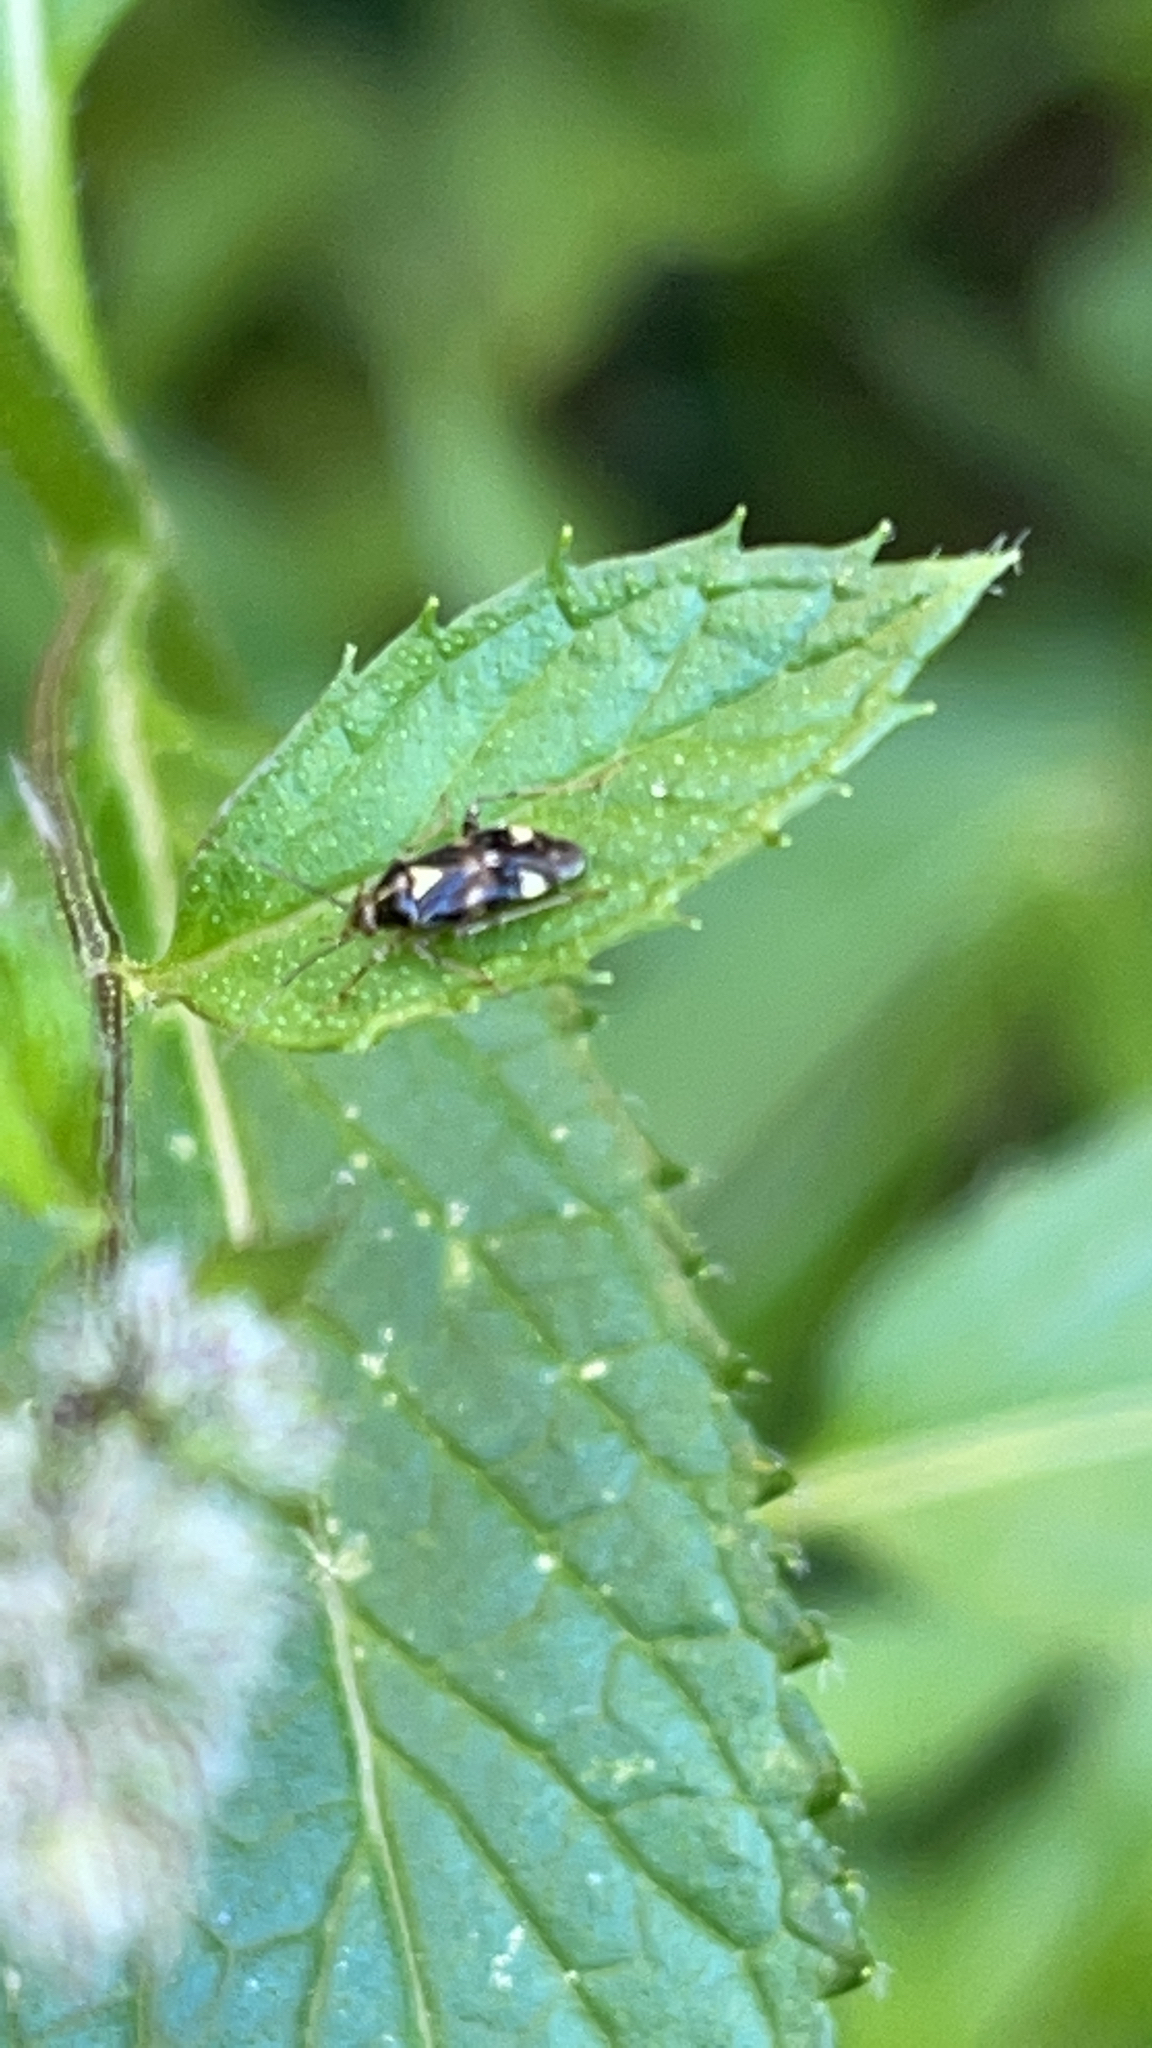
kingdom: Animalia
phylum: Arthropoda
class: Insecta
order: Hemiptera
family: Miridae
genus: Liocoris
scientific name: Liocoris tripustulatus
